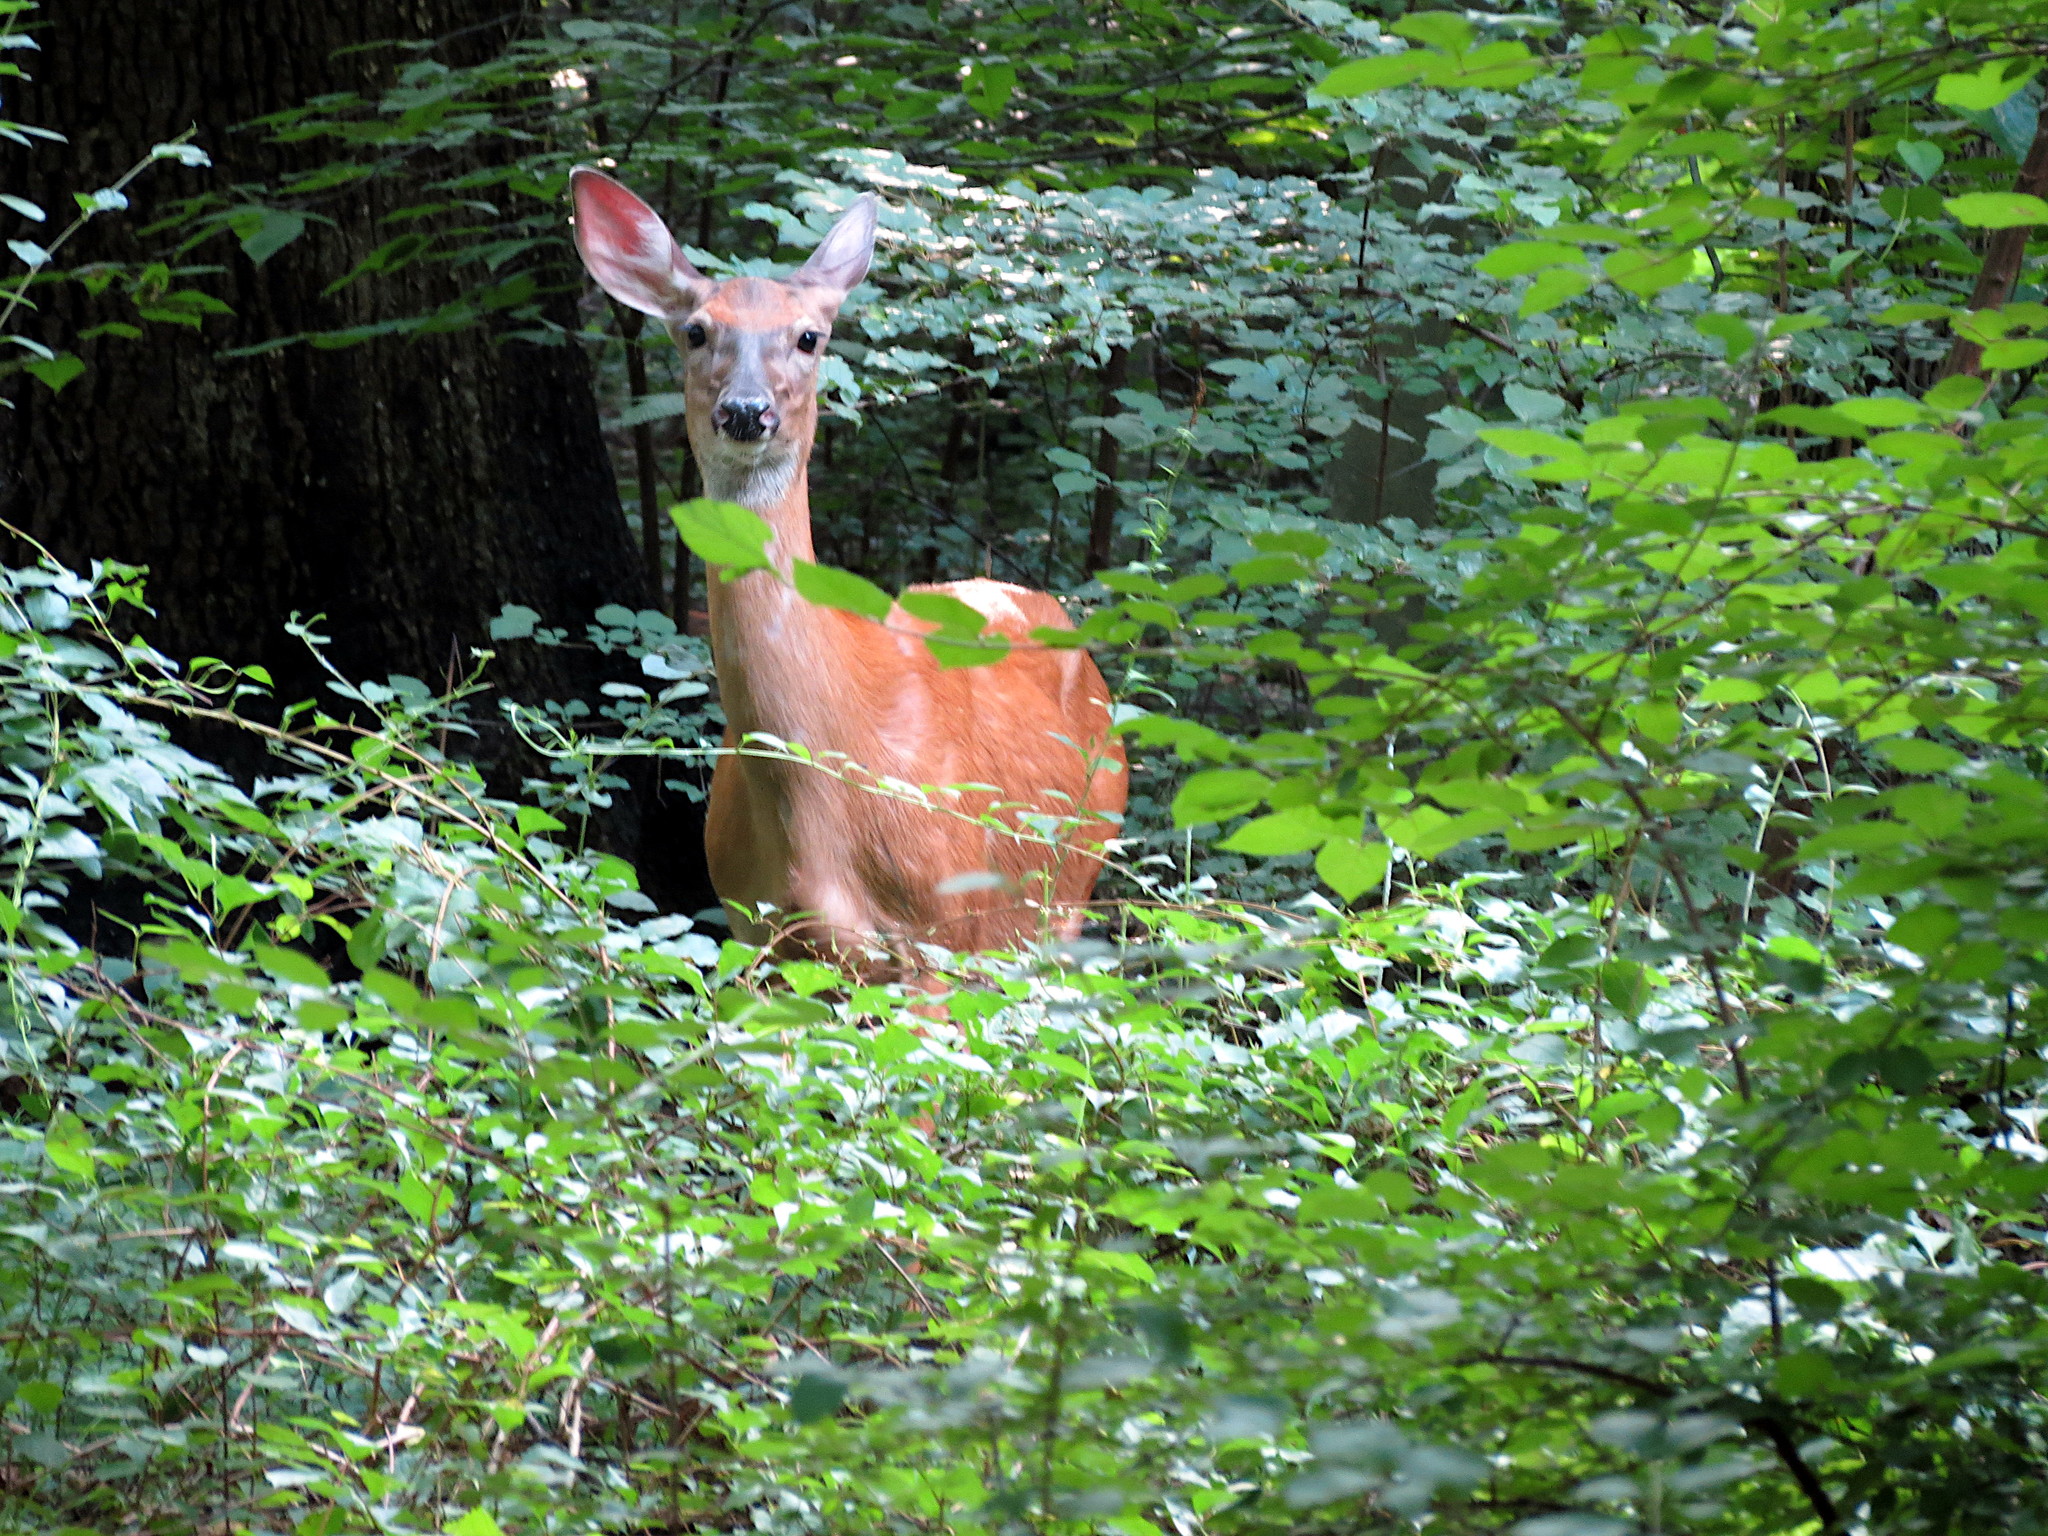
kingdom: Animalia
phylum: Chordata
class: Mammalia
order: Artiodactyla
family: Cervidae
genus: Odocoileus
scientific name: Odocoileus virginianus
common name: White-tailed deer
